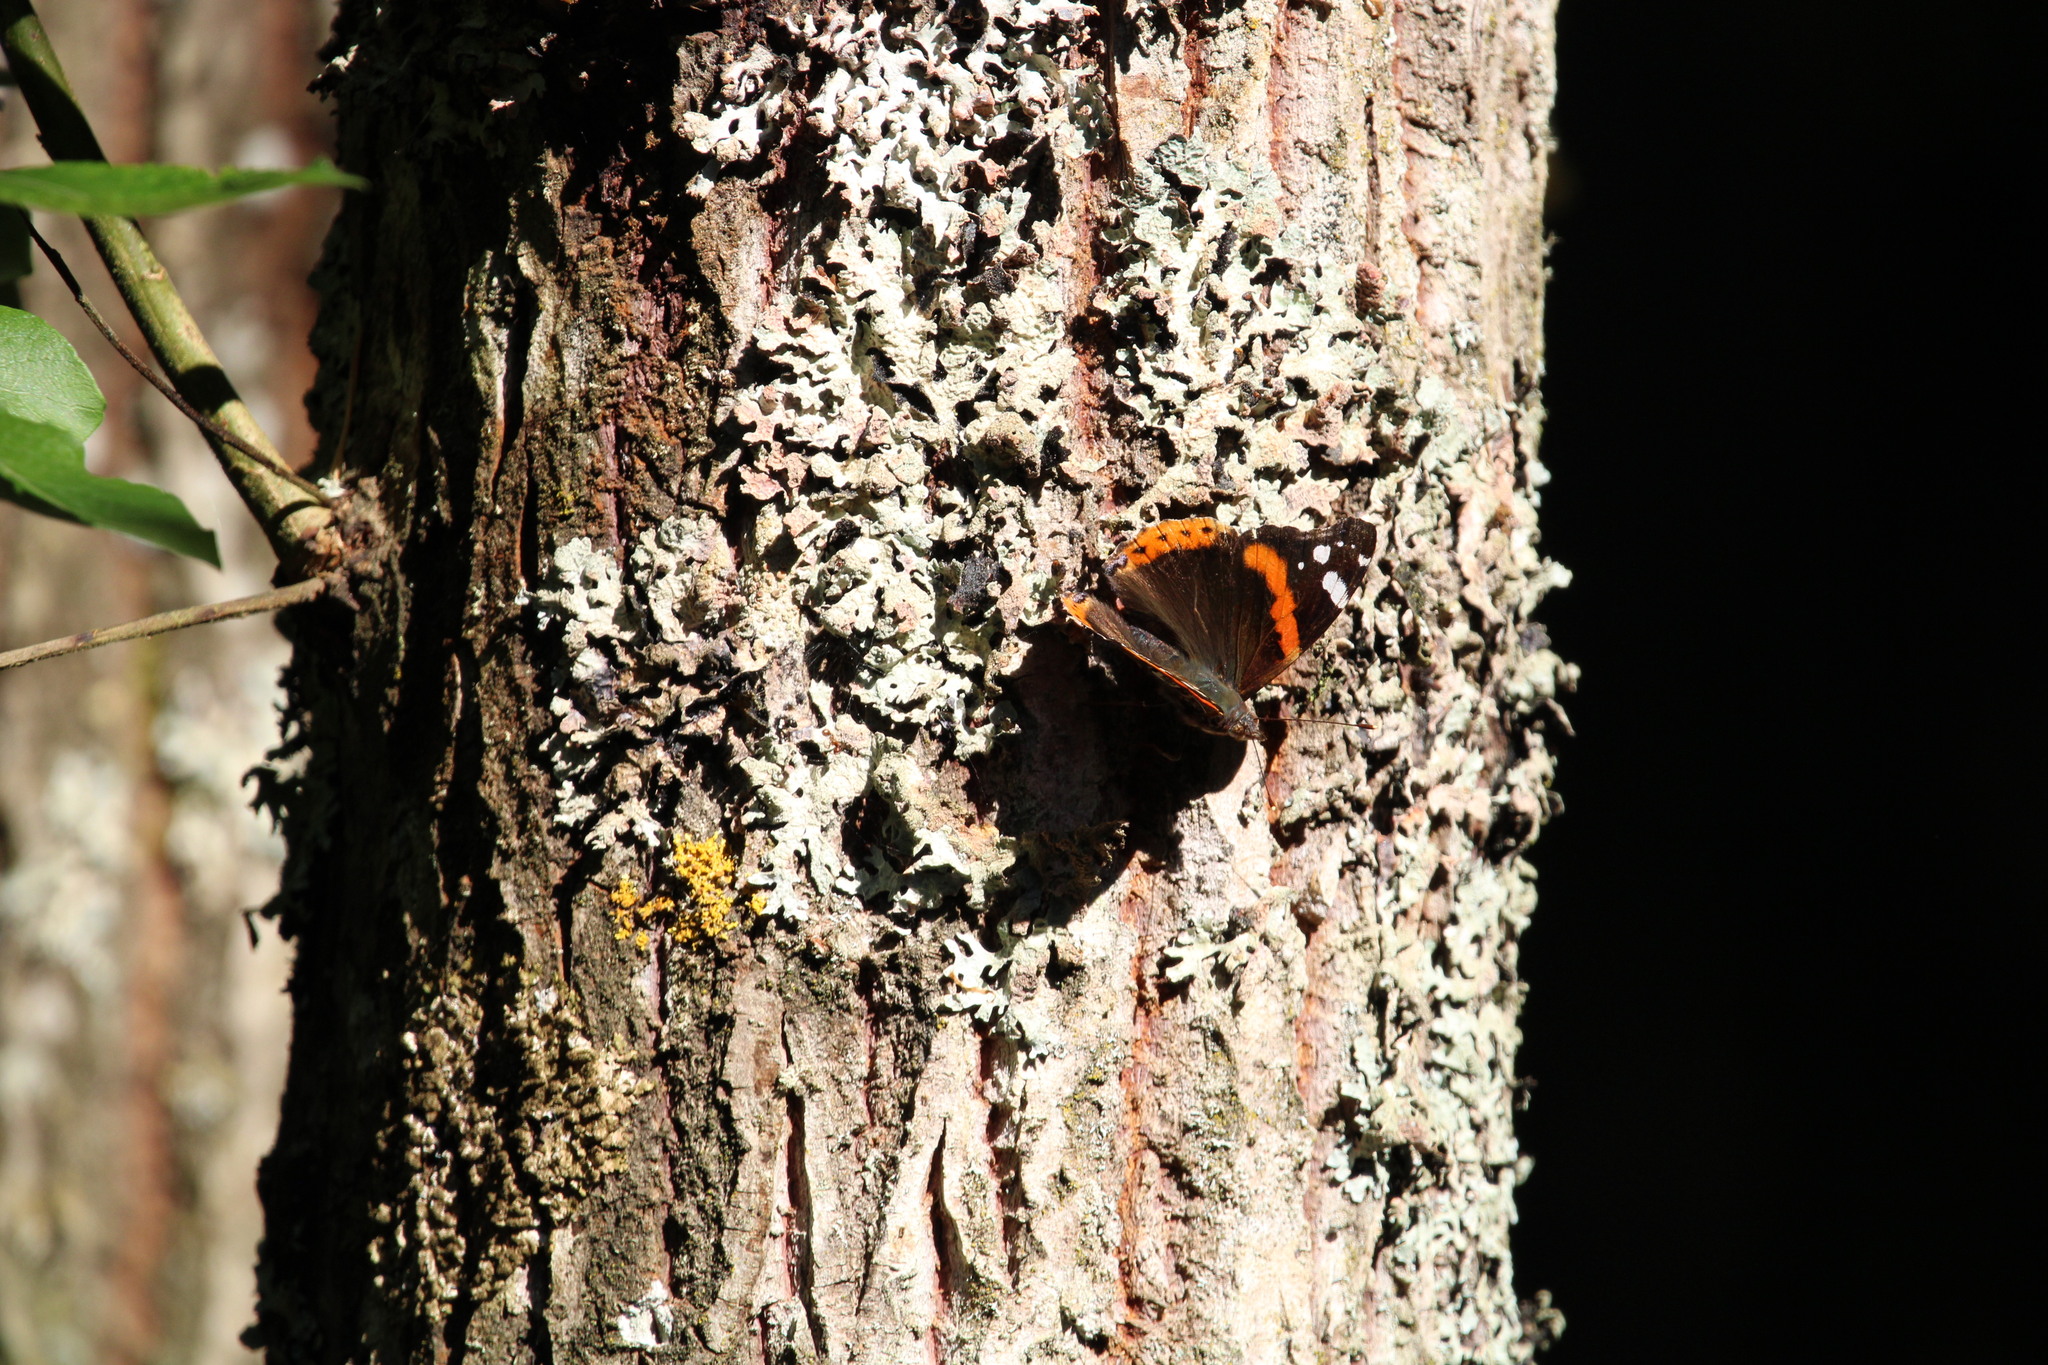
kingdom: Animalia
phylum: Arthropoda
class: Insecta
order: Lepidoptera
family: Nymphalidae
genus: Vanessa
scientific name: Vanessa atalanta
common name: Red admiral
